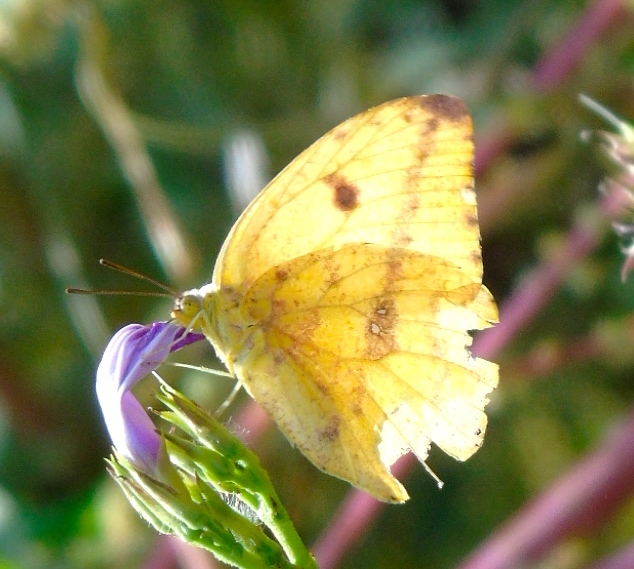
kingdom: Animalia
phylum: Arthropoda
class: Insecta
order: Lepidoptera
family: Pieridae
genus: Phoebis
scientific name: Phoebis agarithe
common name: Large orange sulphur
